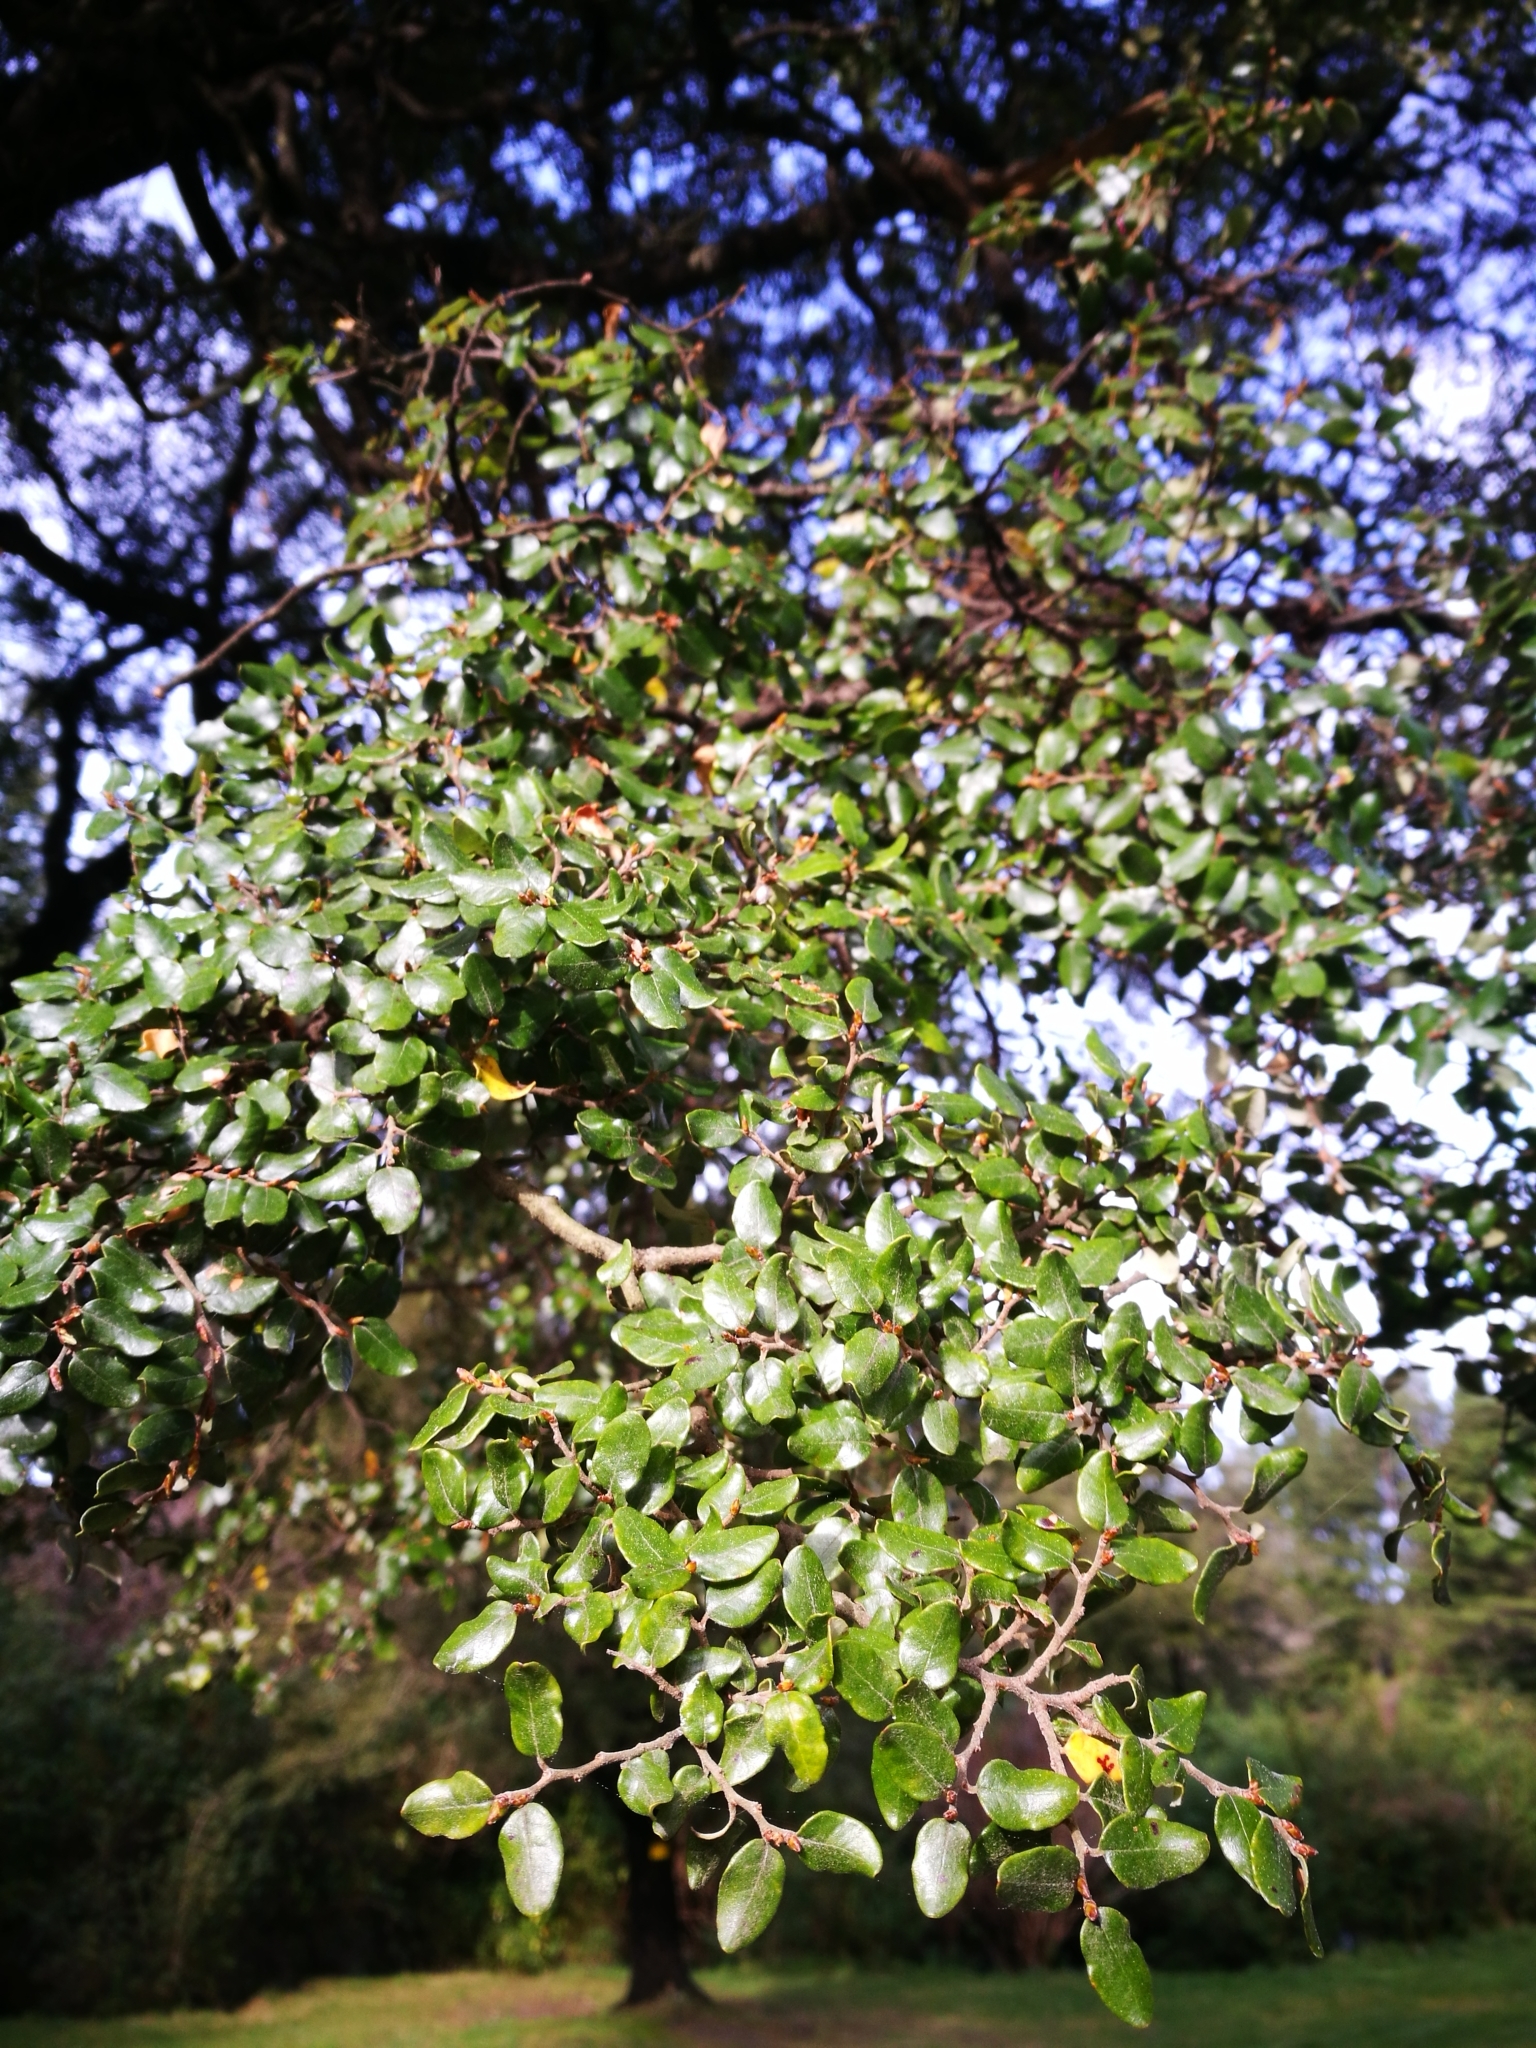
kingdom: Plantae
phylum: Tracheophyta
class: Magnoliopsida
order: Fagales
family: Nothofagaceae
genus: Nothofagus
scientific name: Nothofagus cliffortioides
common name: Mountain beech
